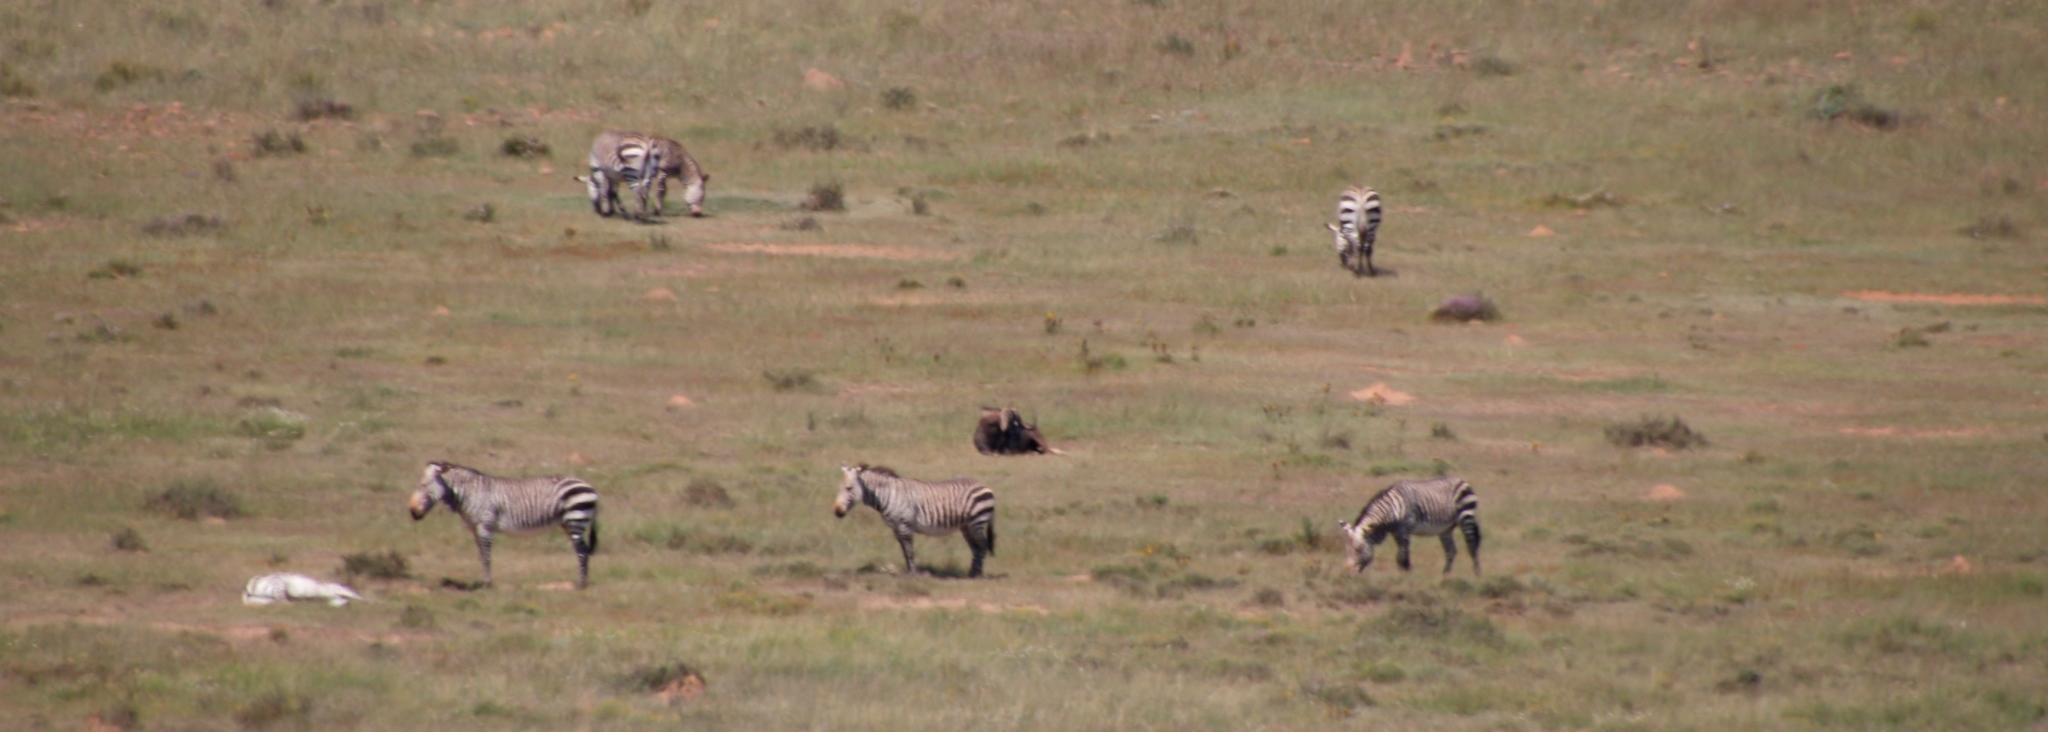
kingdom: Animalia
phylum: Chordata
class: Mammalia
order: Perissodactyla
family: Equidae
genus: Equus
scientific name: Equus zebra
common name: Mountain zebra
